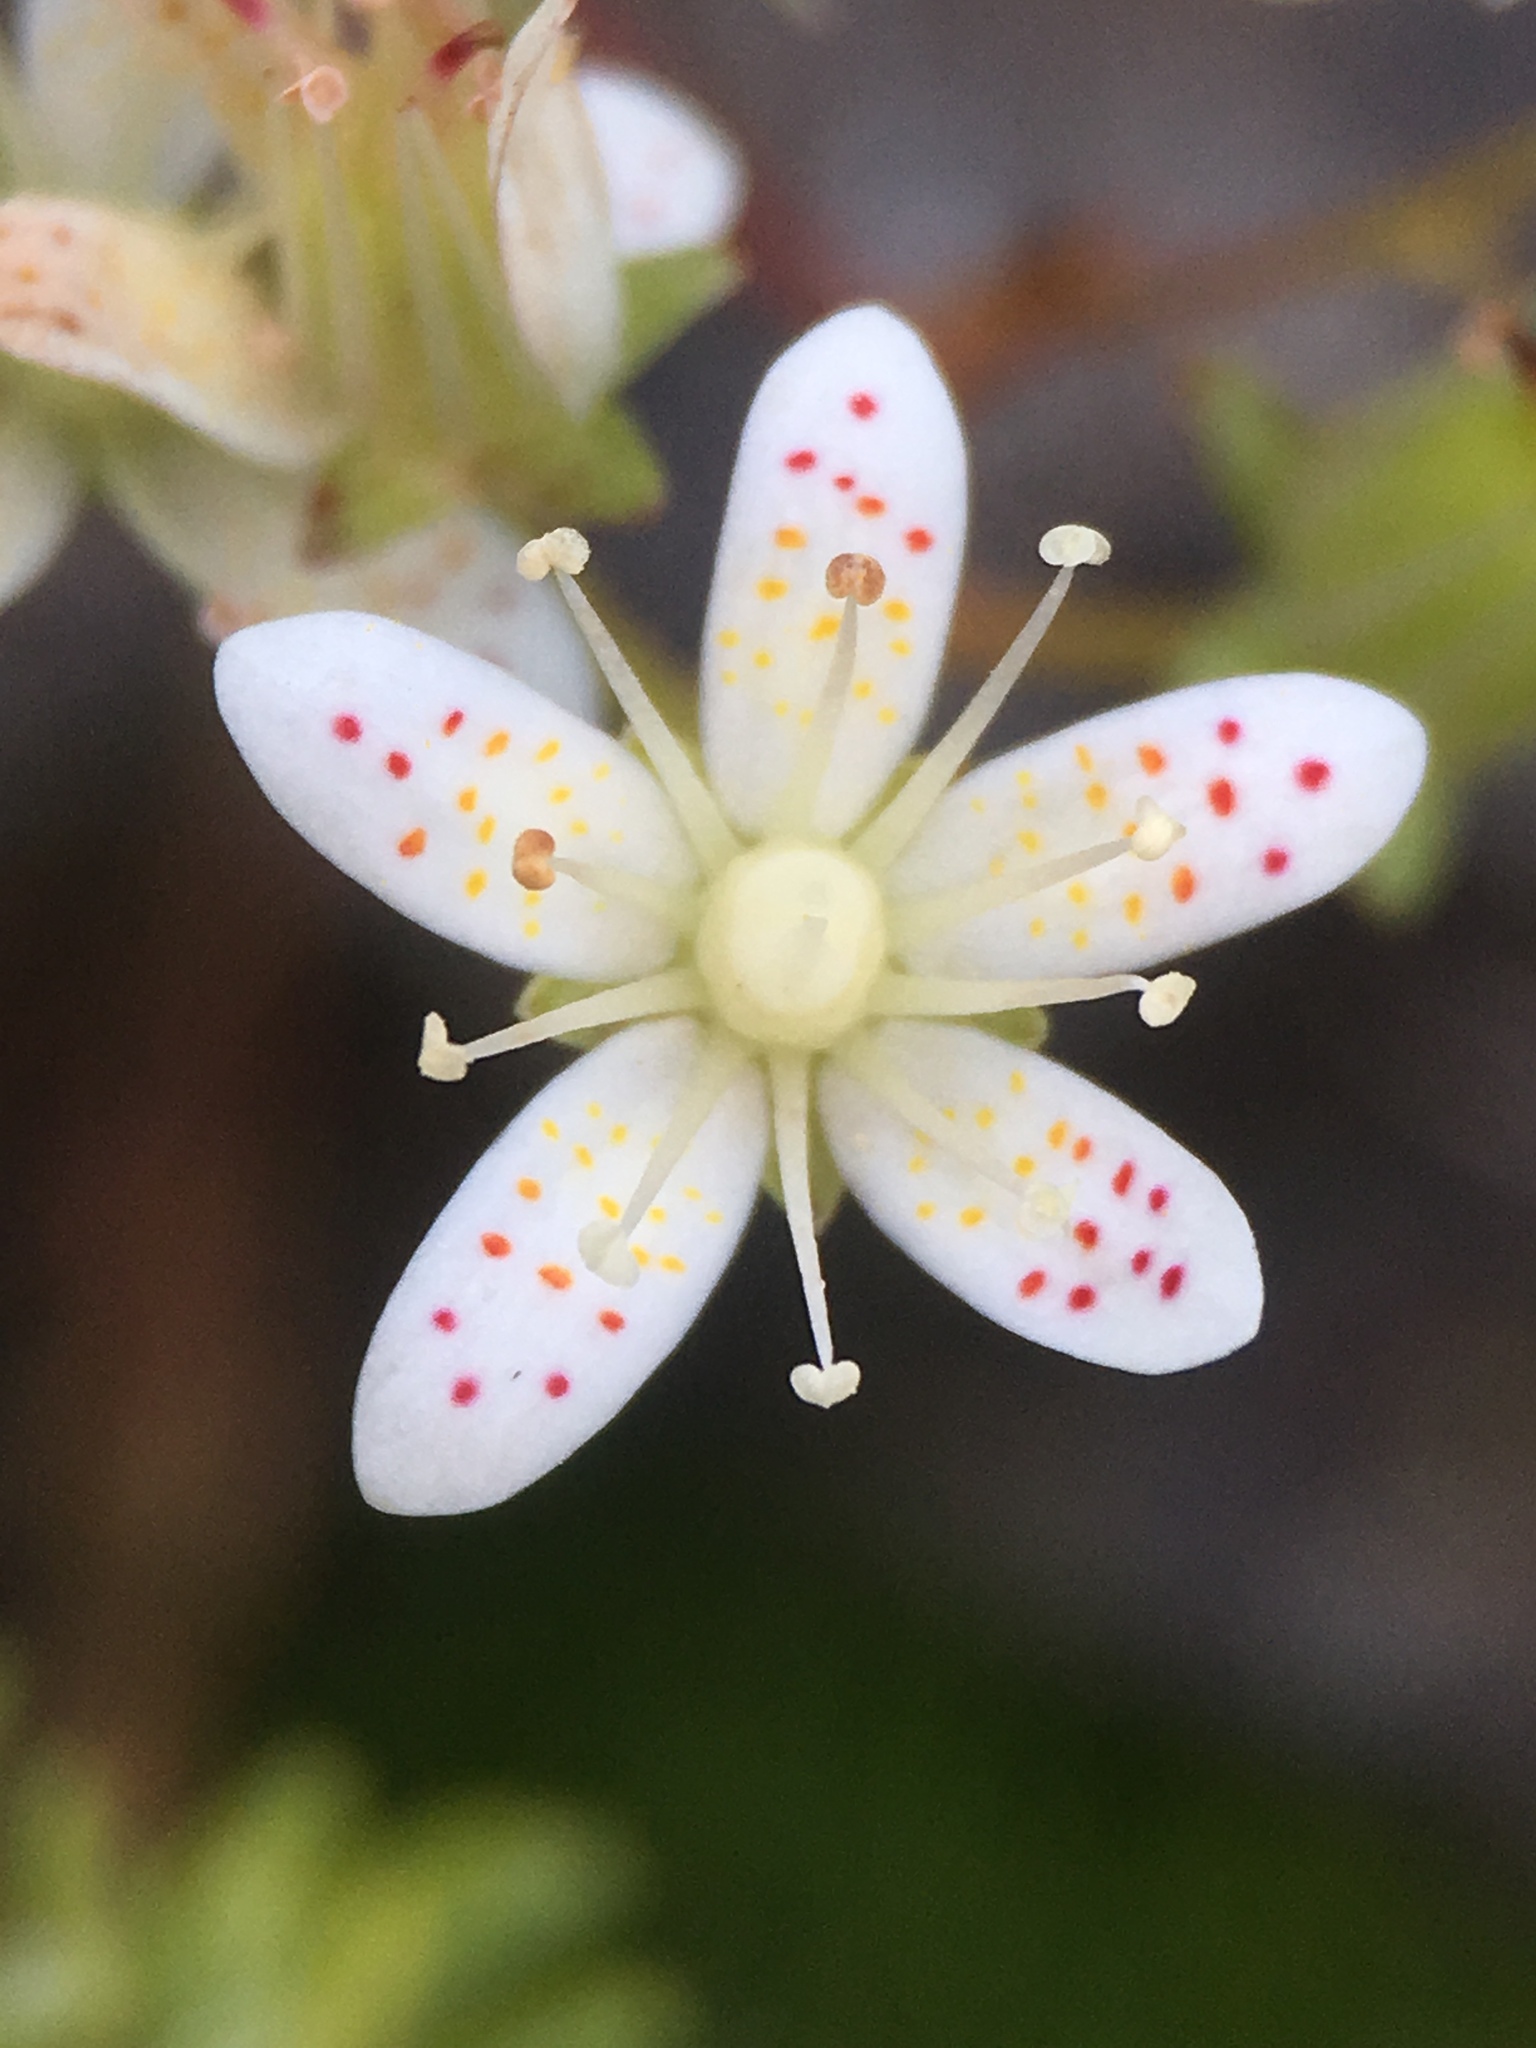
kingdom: Plantae
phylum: Tracheophyta
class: Magnoliopsida
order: Saxifragales
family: Saxifragaceae
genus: Saxifraga
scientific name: Saxifraga bronchialis
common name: Matted saxifrage
